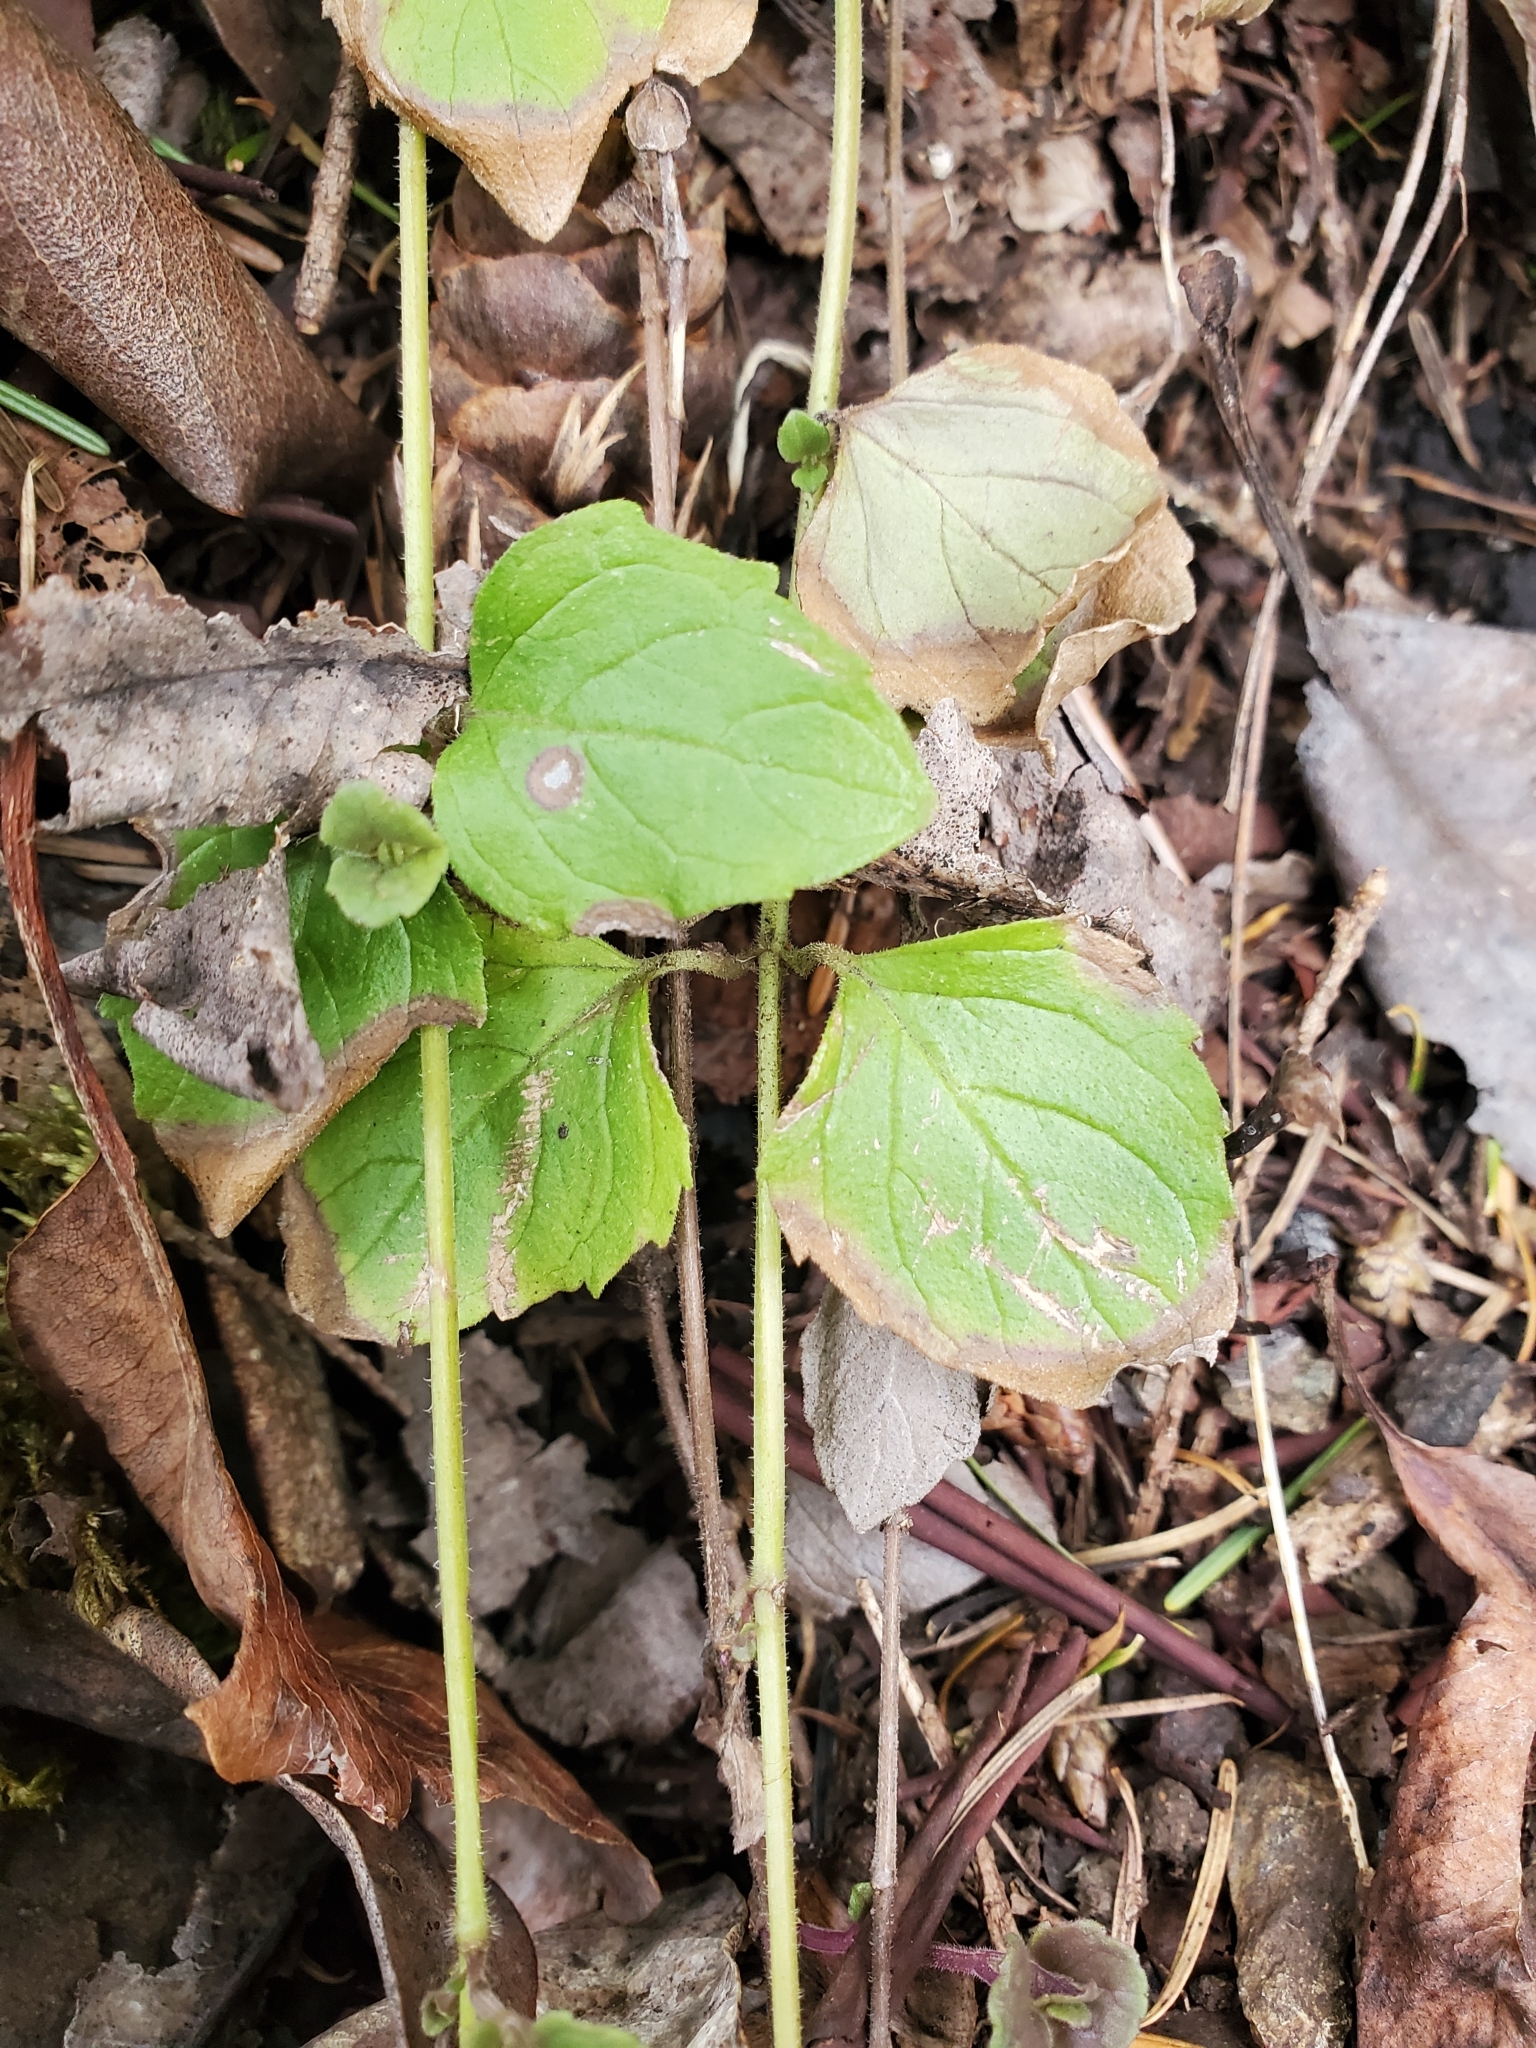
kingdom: Plantae
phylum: Tracheophyta
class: Magnoliopsida
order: Lamiales
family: Lamiaceae
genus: Micromeria
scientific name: Micromeria douglasii
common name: Yerba buena
